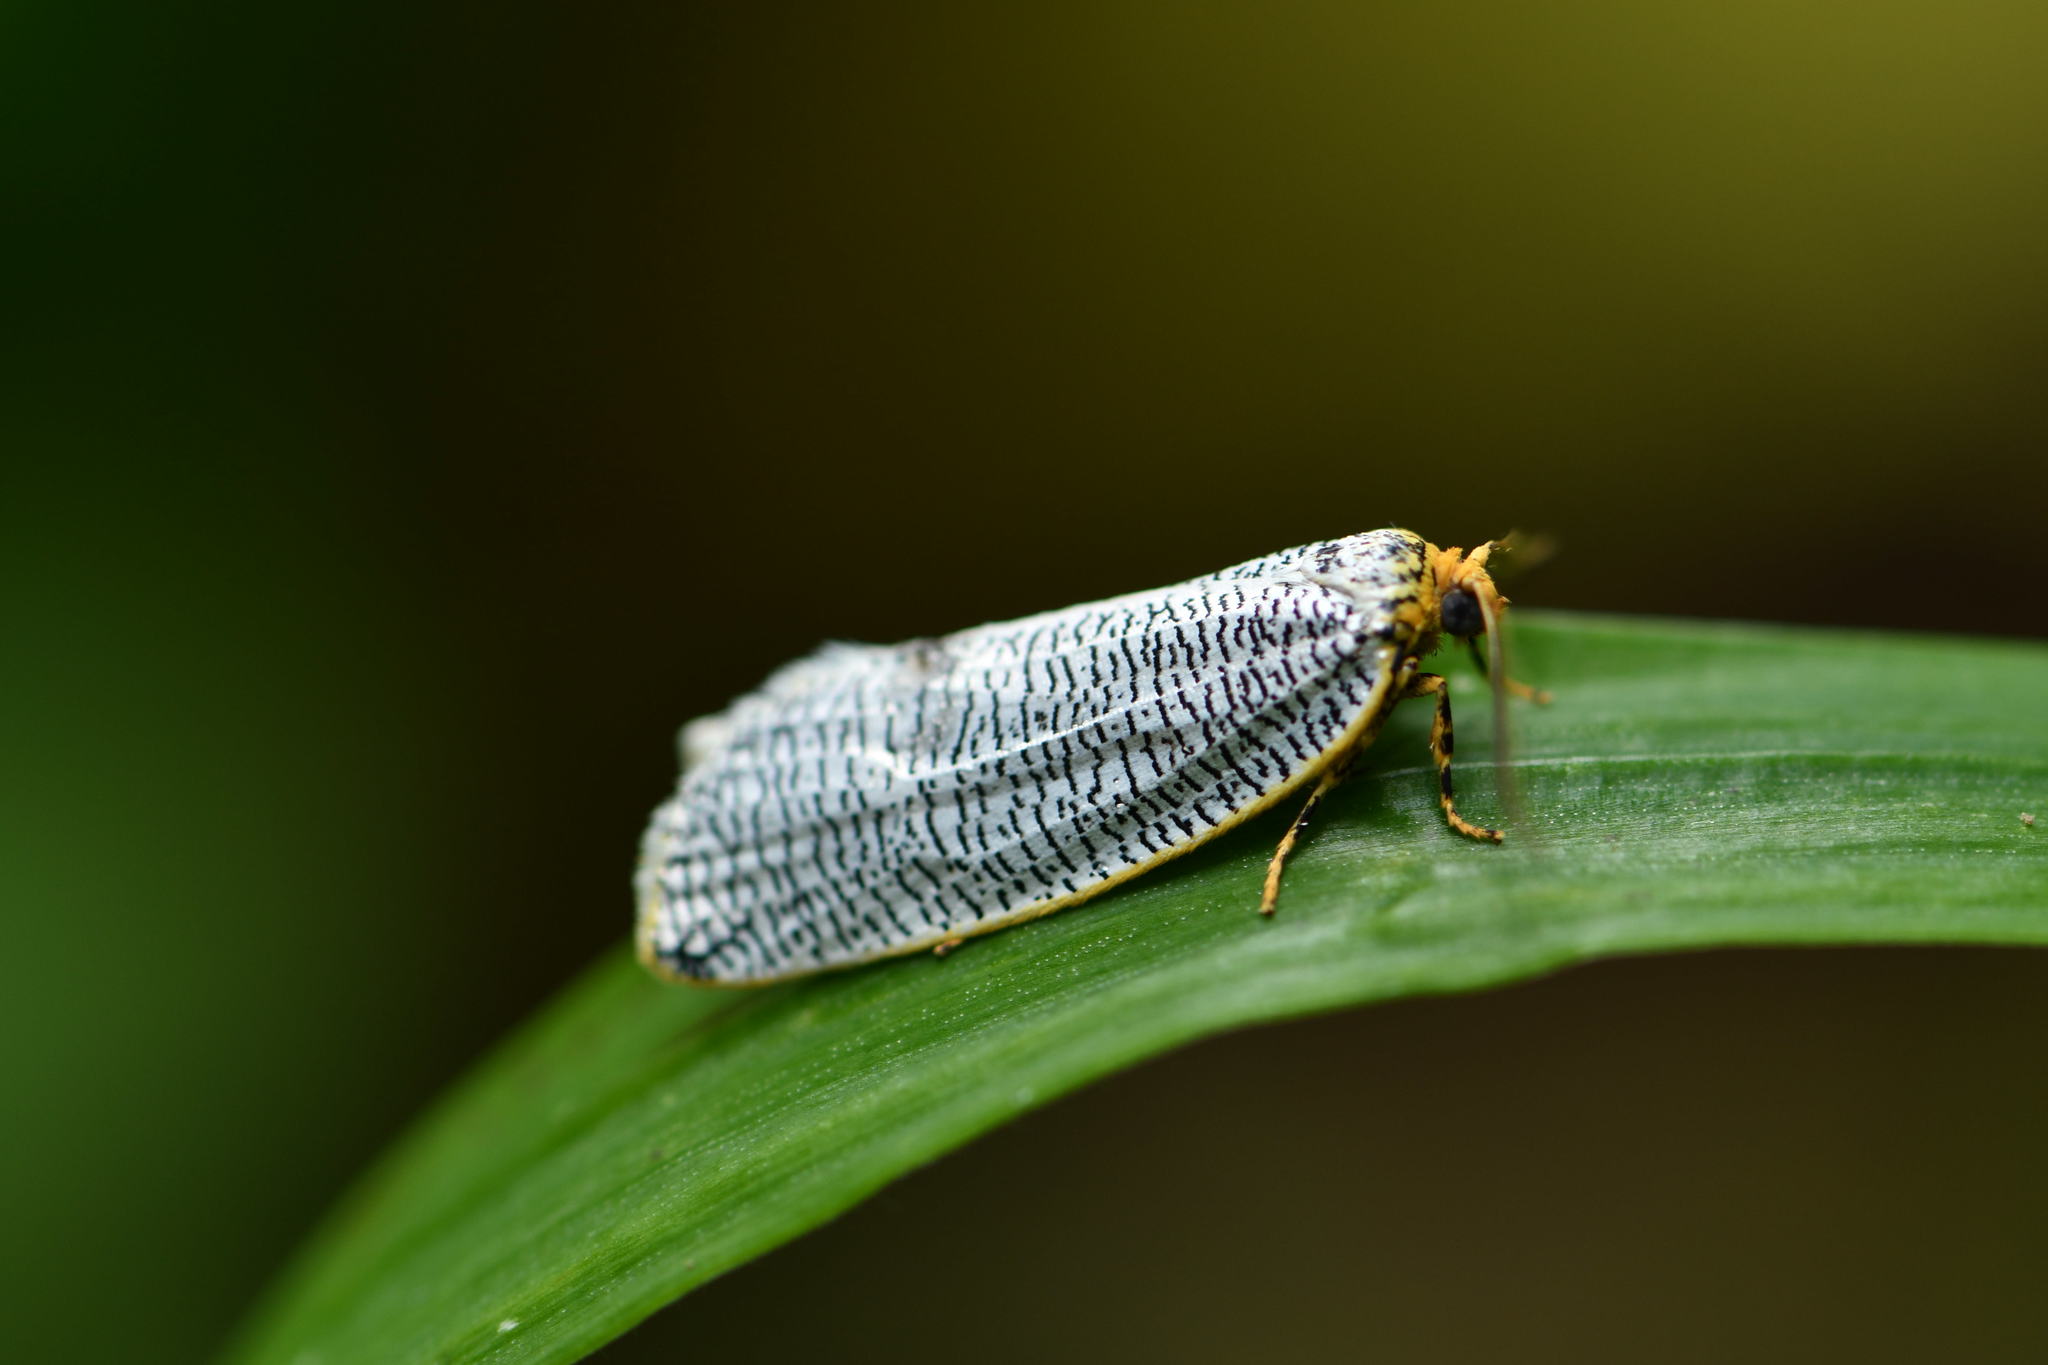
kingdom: Animalia
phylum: Arthropoda
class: Insecta
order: Lepidoptera
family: Tortricidae
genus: Templemania
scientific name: Templemania millistriata
